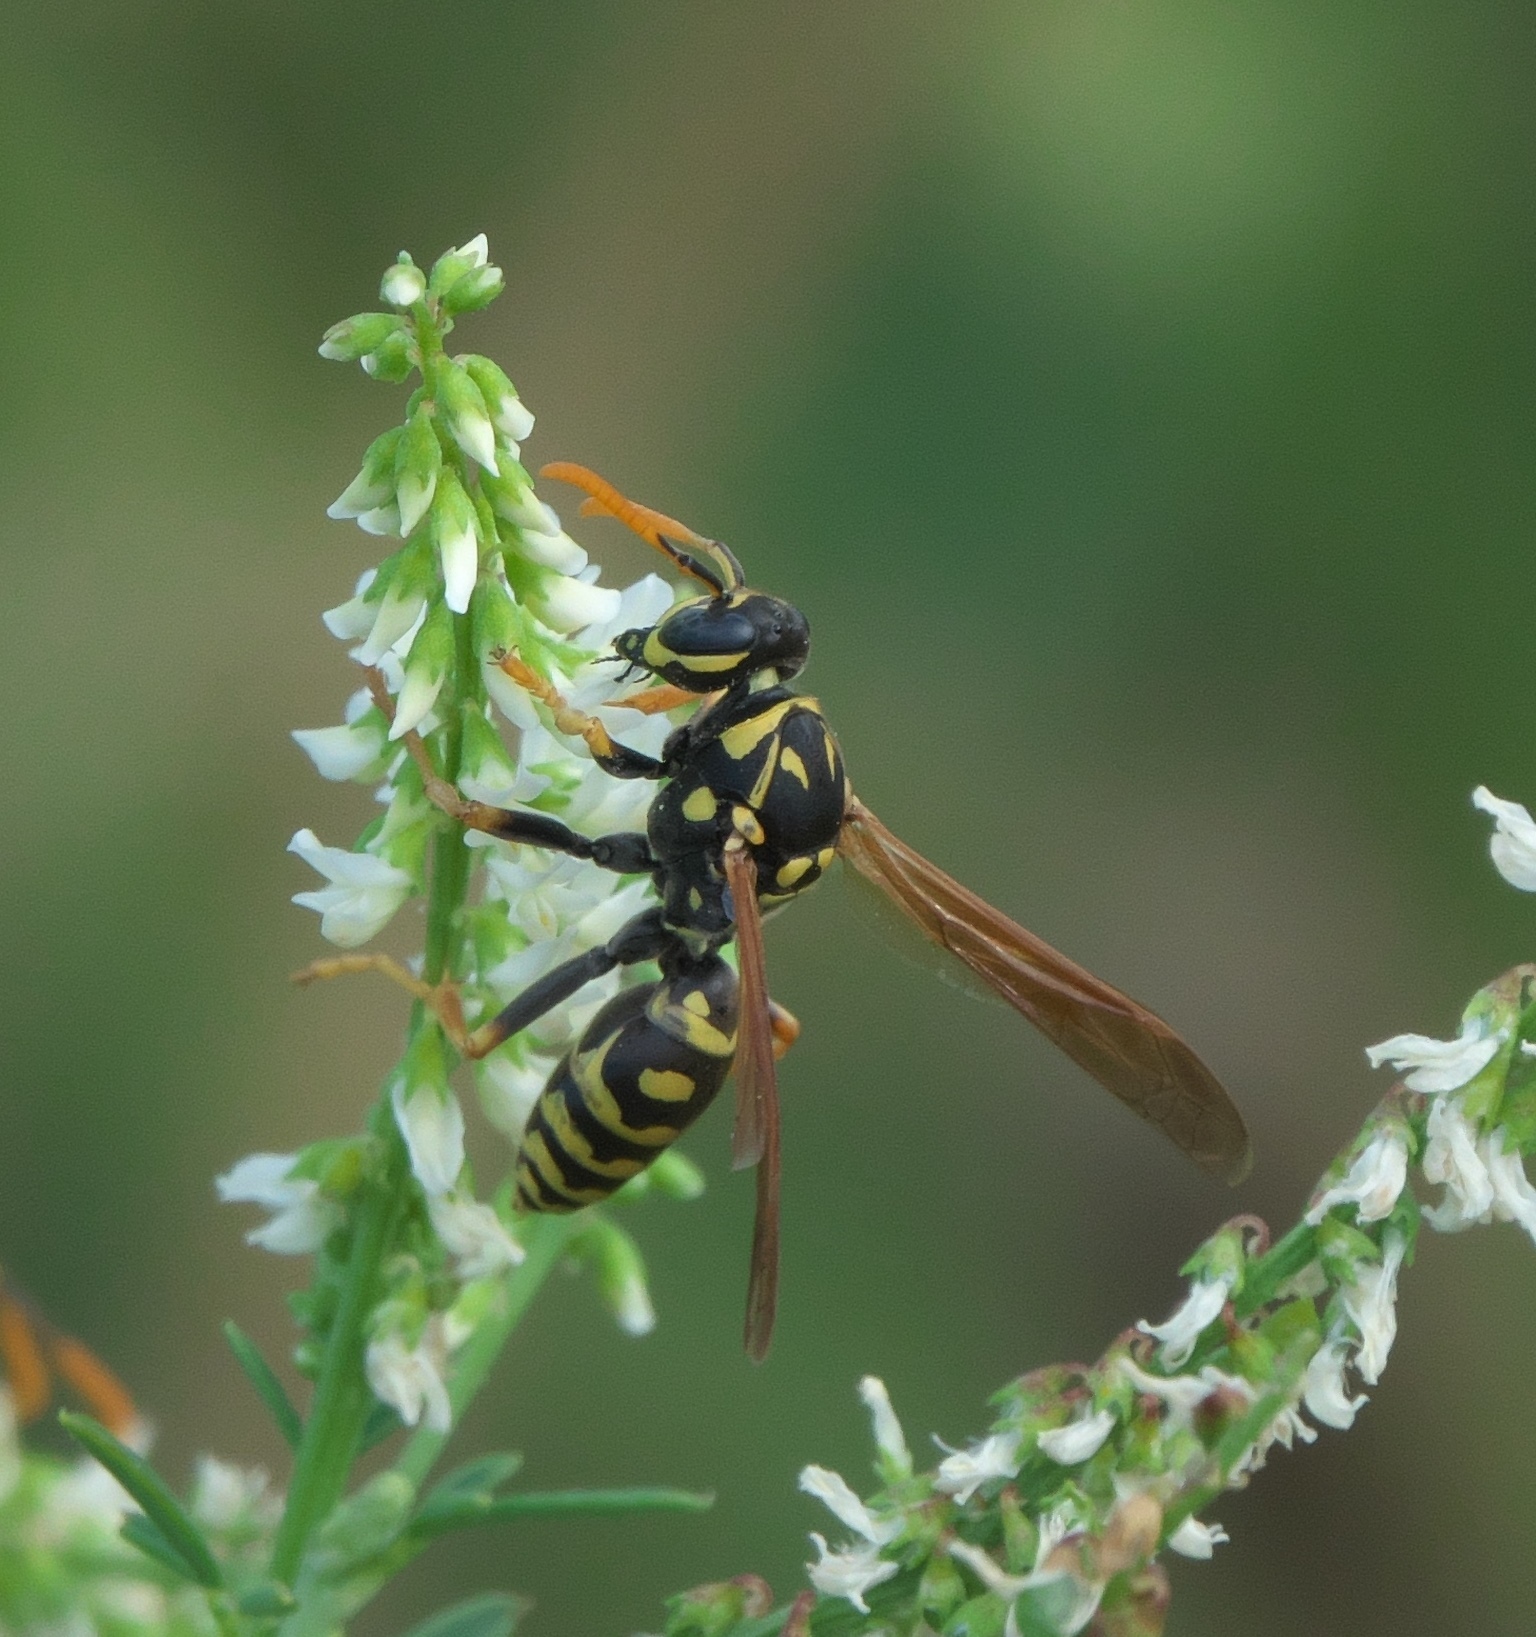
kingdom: Animalia
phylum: Arthropoda
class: Insecta
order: Hymenoptera
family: Eumenidae
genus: Polistes
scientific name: Polistes dominula
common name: Paper wasp
